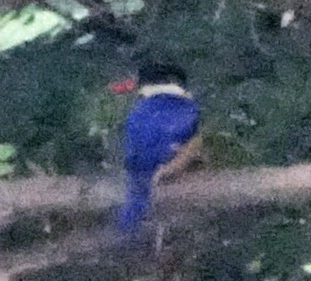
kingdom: Animalia
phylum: Chordata
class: Aves
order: Coraciiformes
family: Alcedinidae
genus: Halcyon
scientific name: Halcyon pileata
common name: Black-capped kingfisher
